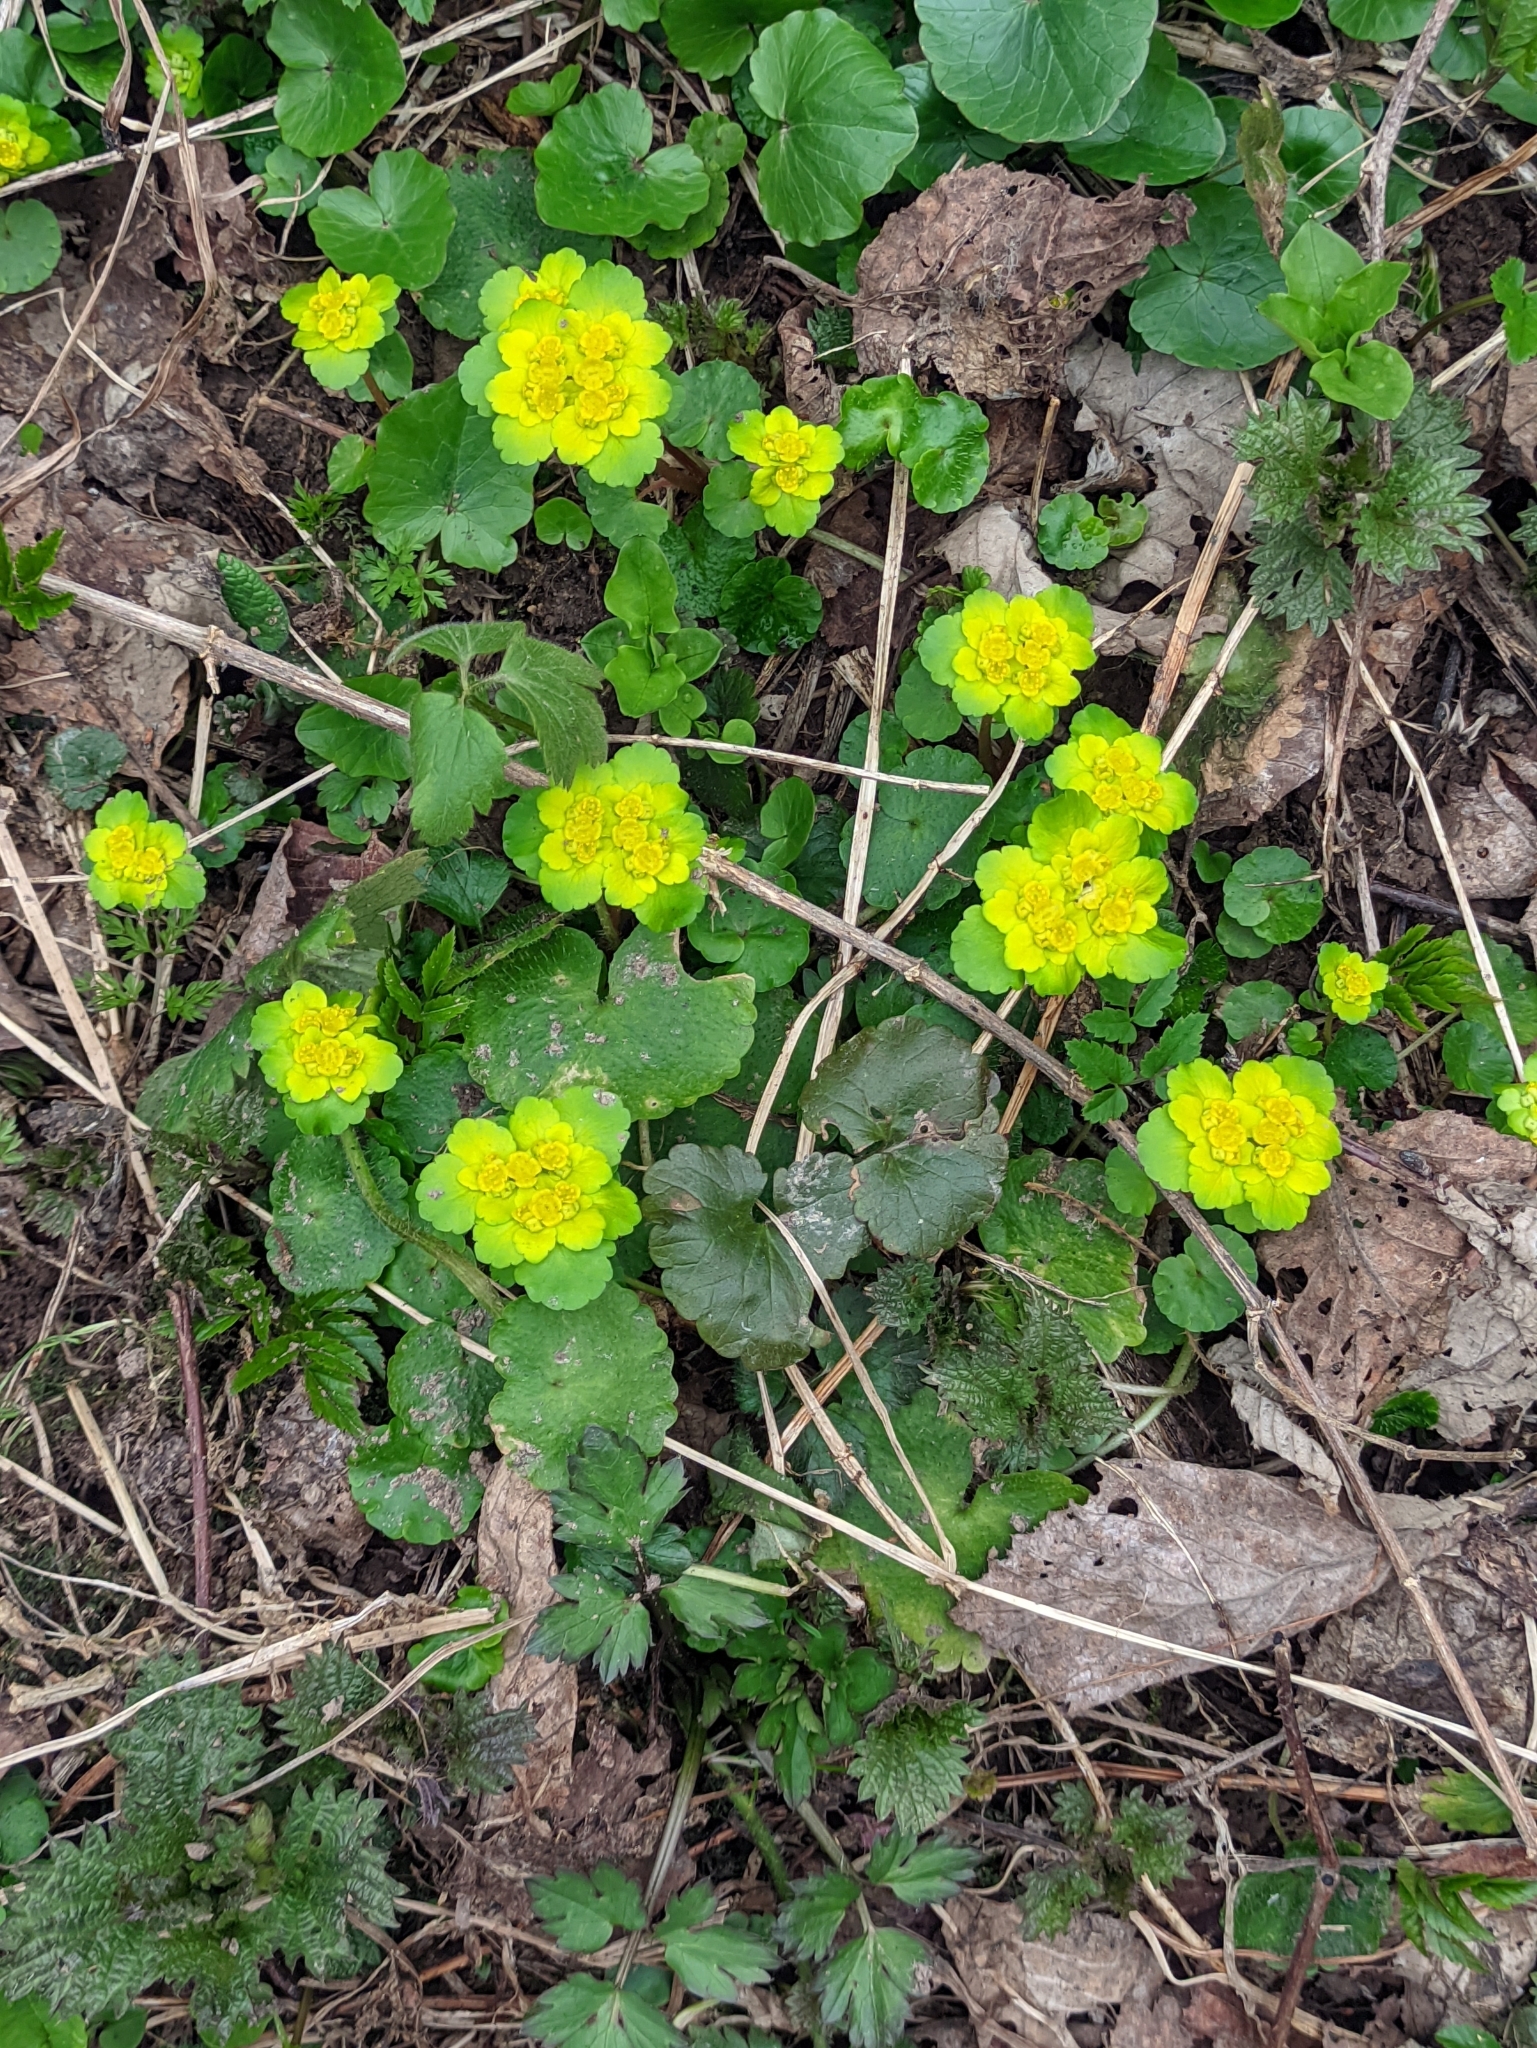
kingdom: Plantae
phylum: Tracheophyta
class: Magnoliopsida
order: Saxifragales
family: Saxifragaceae
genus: Chrysosplenium
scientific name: Chrysosplenium alternifolium
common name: Alternate-leaved golden-saxifrage
